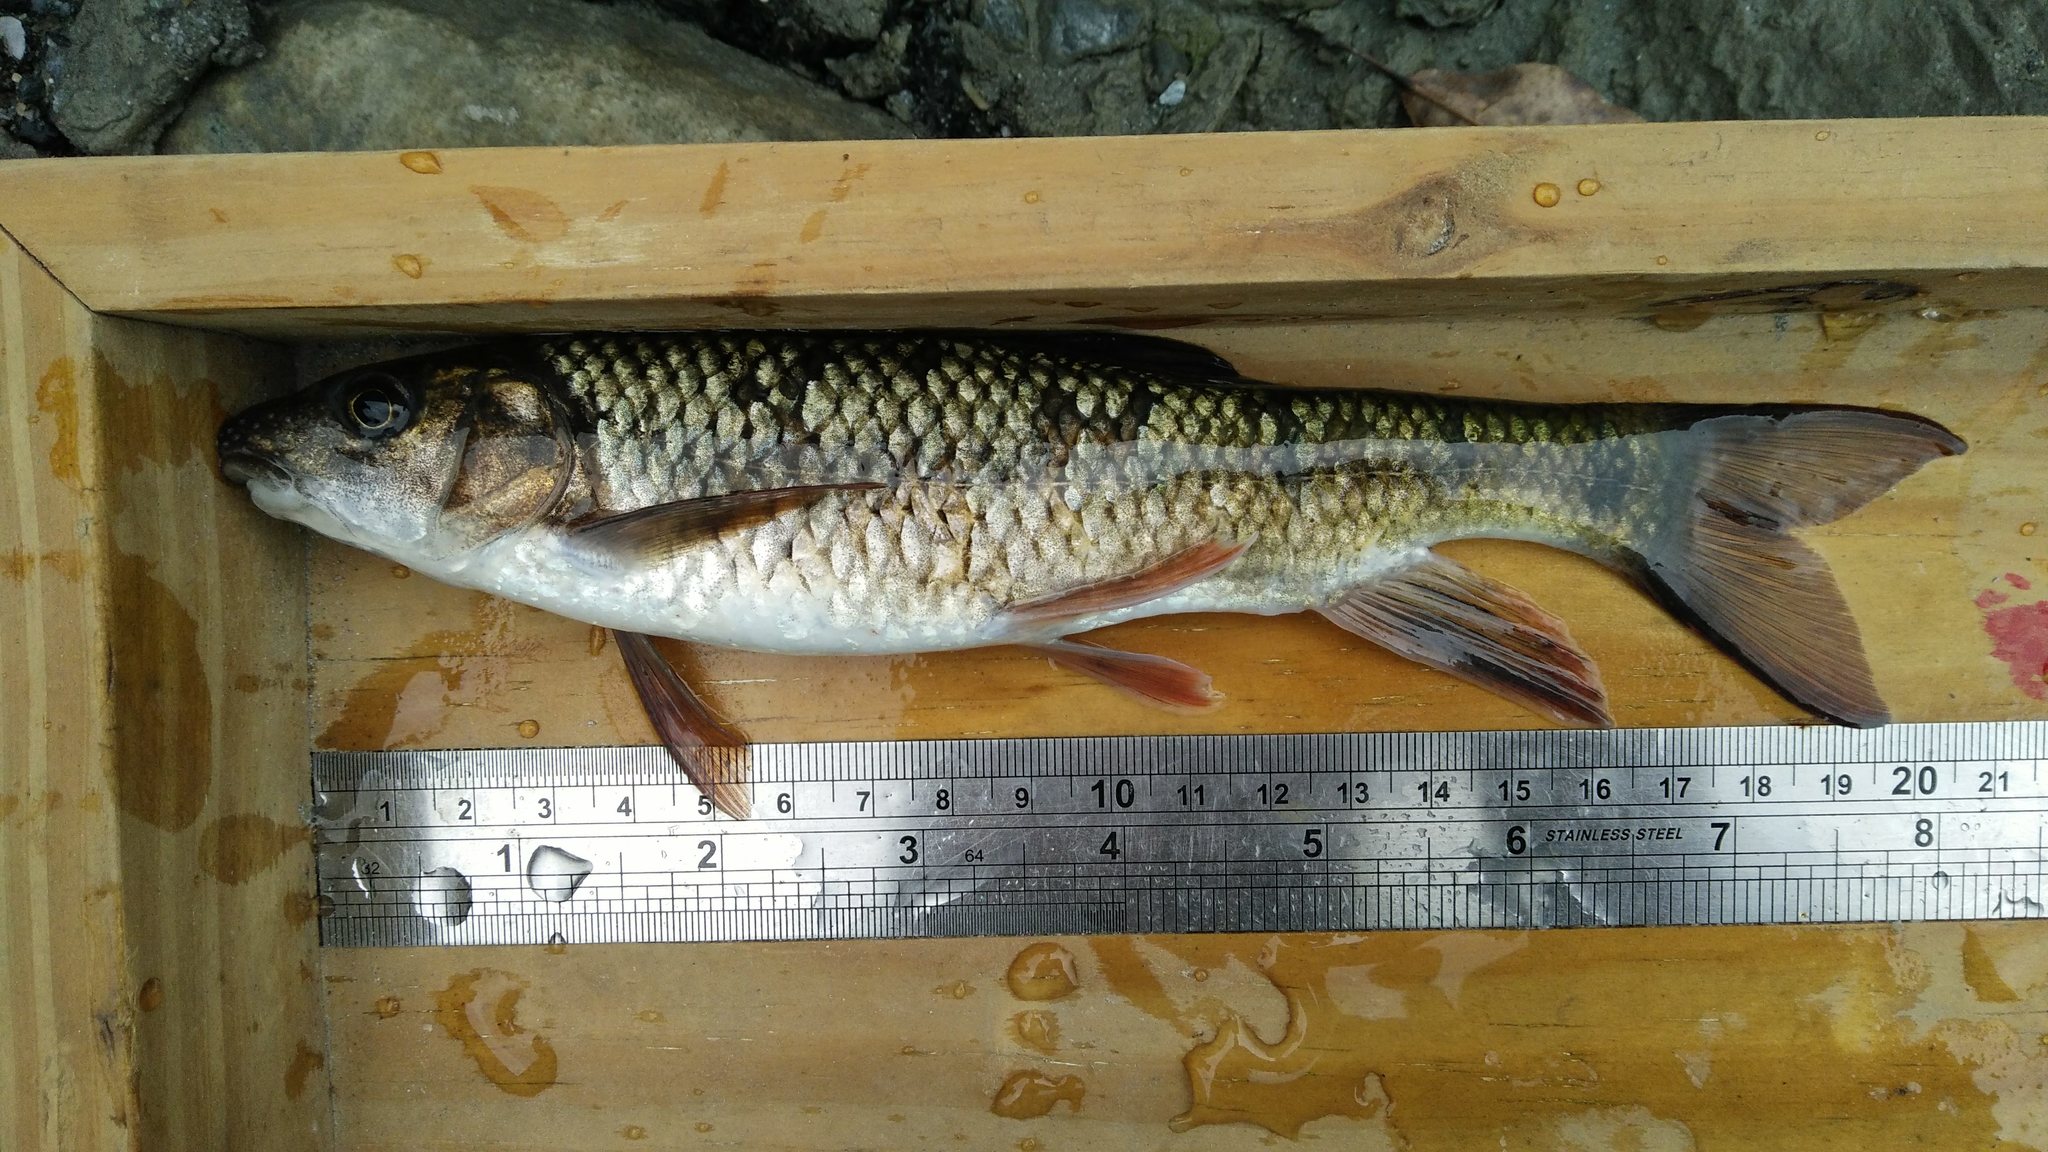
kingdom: Animalia
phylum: Chordata
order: Cypriniformes
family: Cyprinidae
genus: Acrossocheilus
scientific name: Acrossocheilus paradoxus
